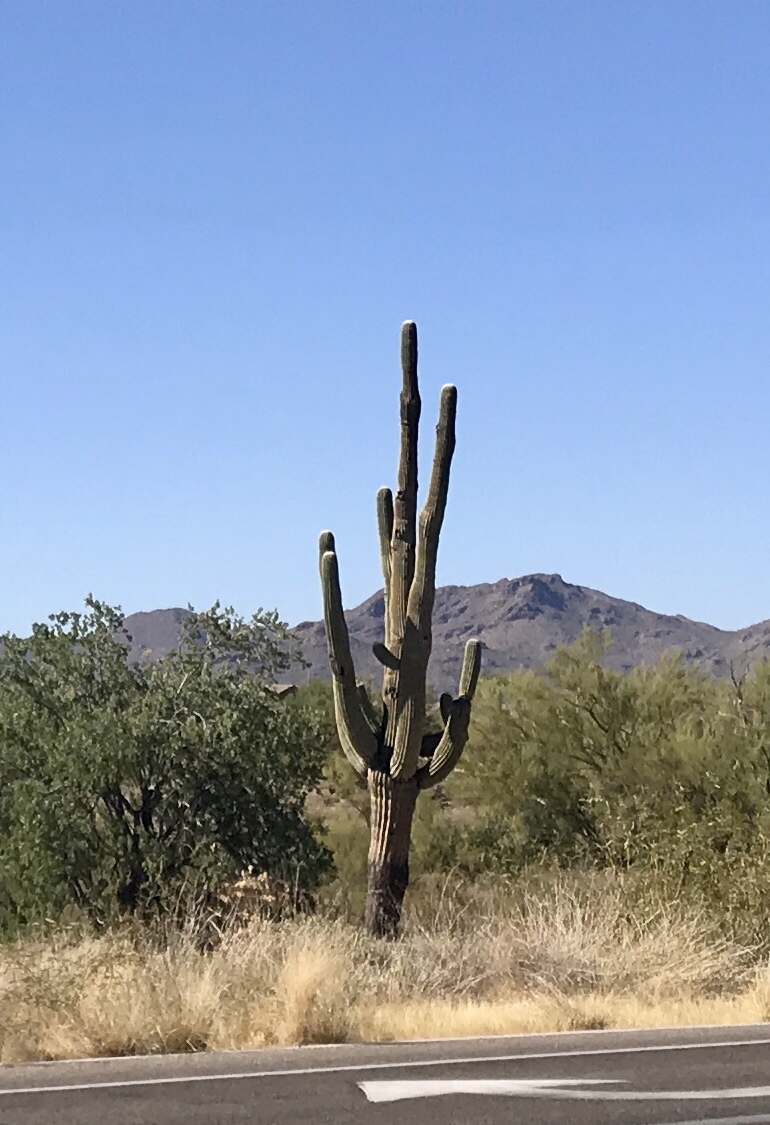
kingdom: Plantae
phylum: Tracheophyta
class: Magnoliopsida
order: Caryophyllales
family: Cactaceae
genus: Carnegiea
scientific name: Carnegiea gigantea
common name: Saguaro
